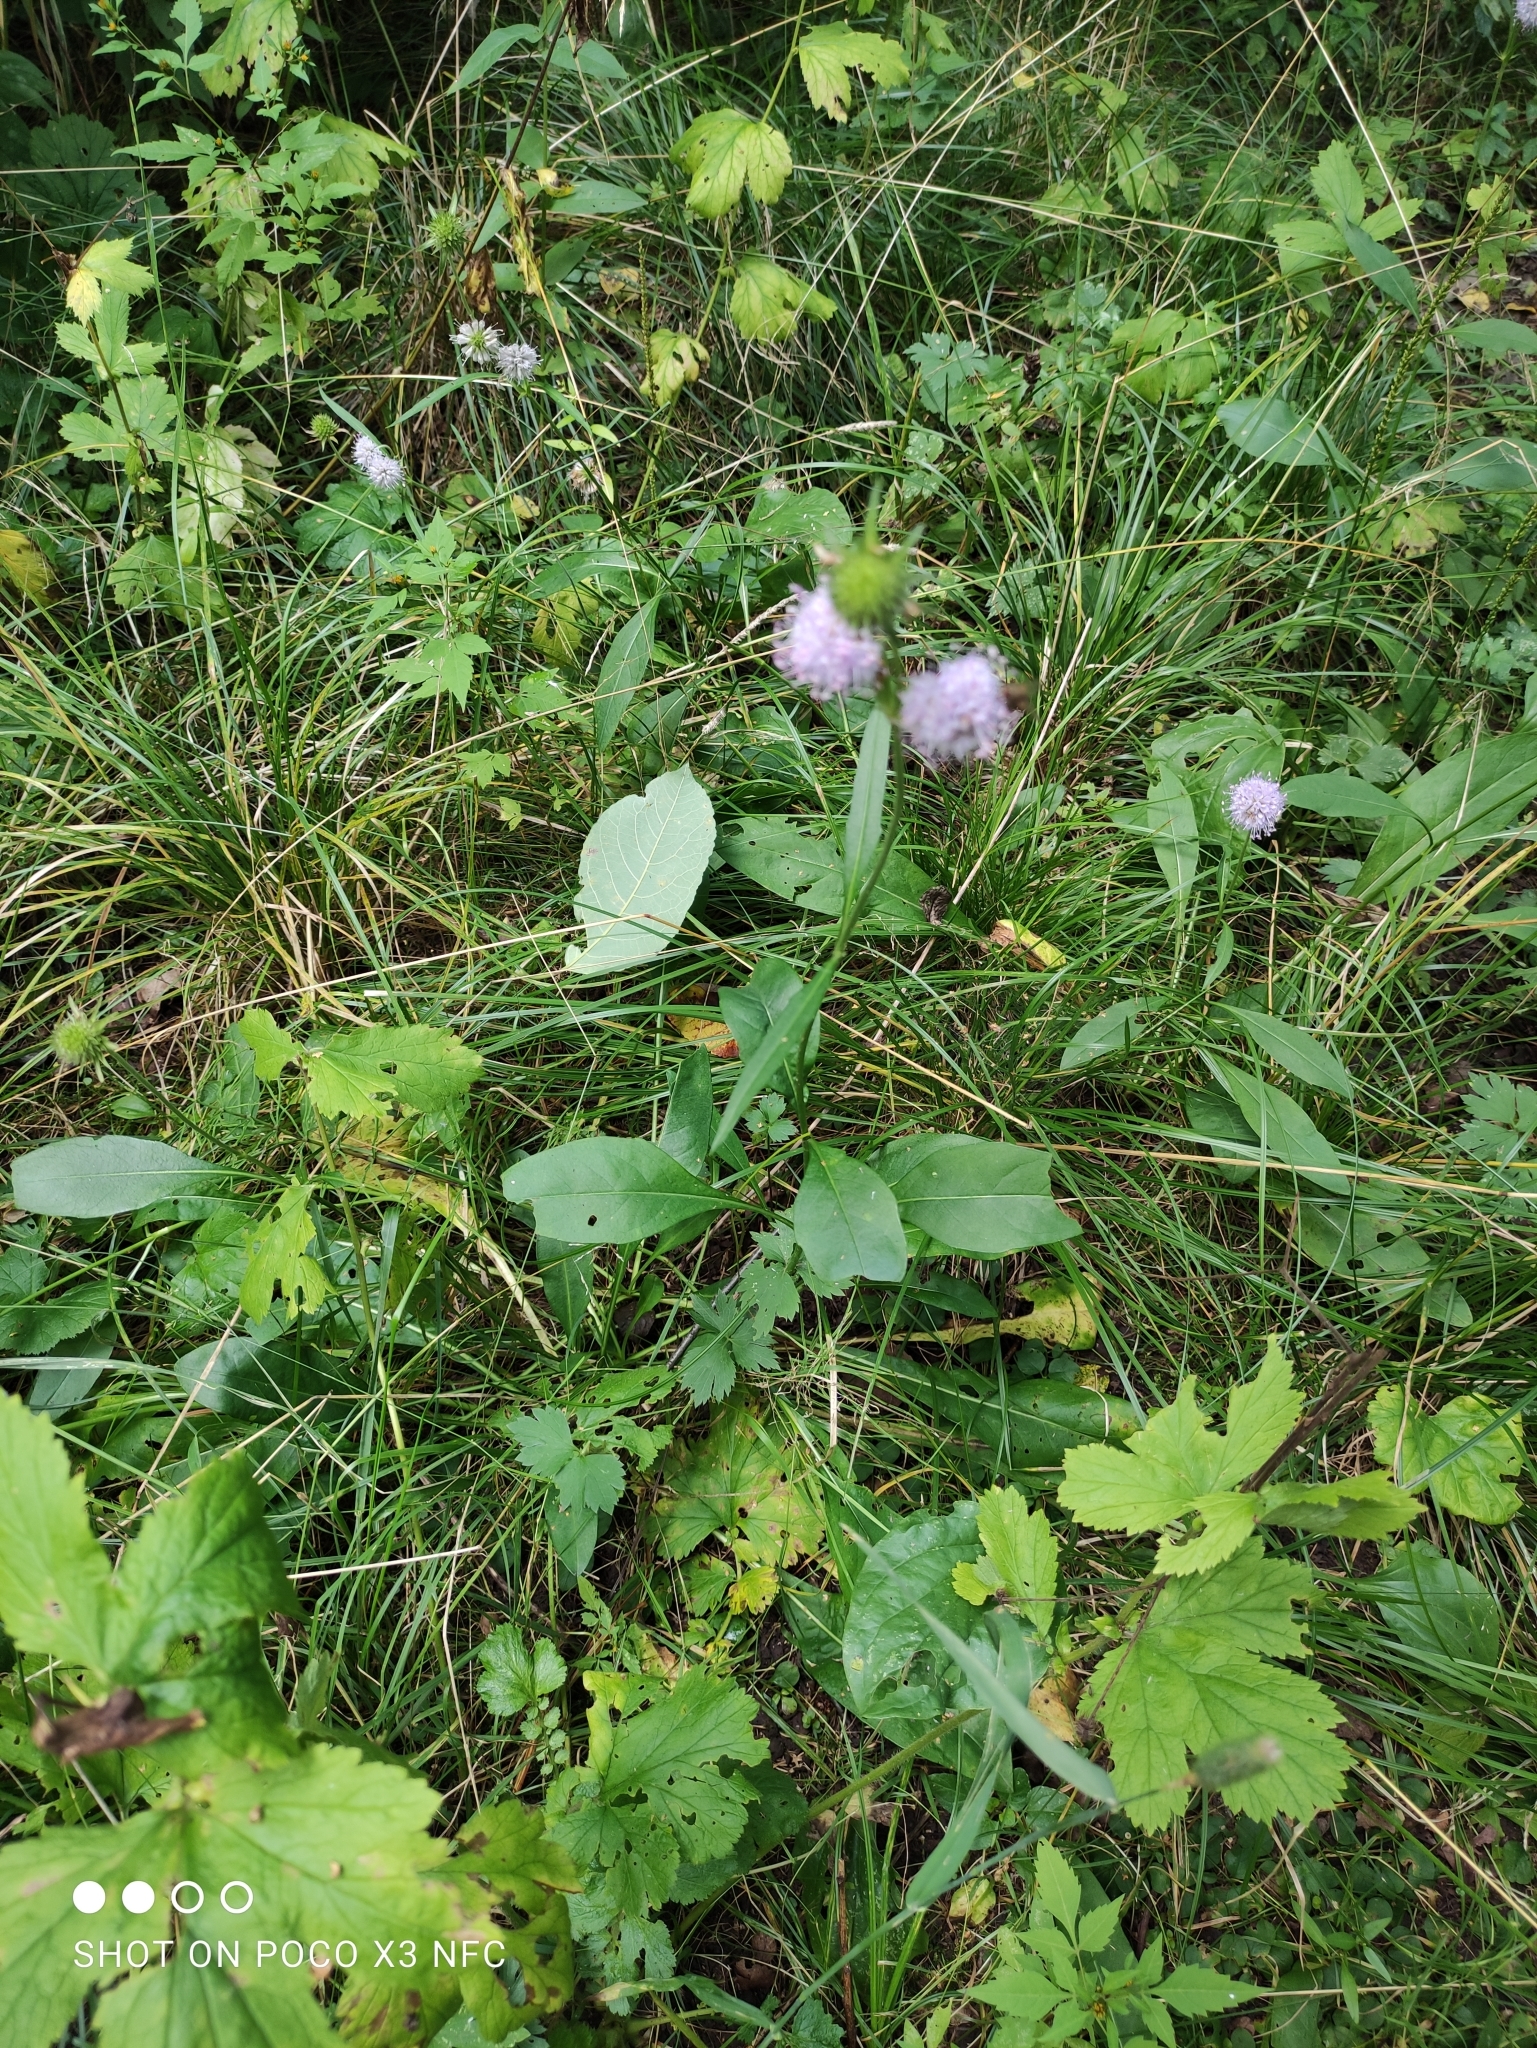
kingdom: Plantae
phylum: Tracheophyta
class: Magnoliopsida
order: Dipsacales
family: Caprifoliaceae
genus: Succisa
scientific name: Succisa pratensis
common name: Devil's-bit
